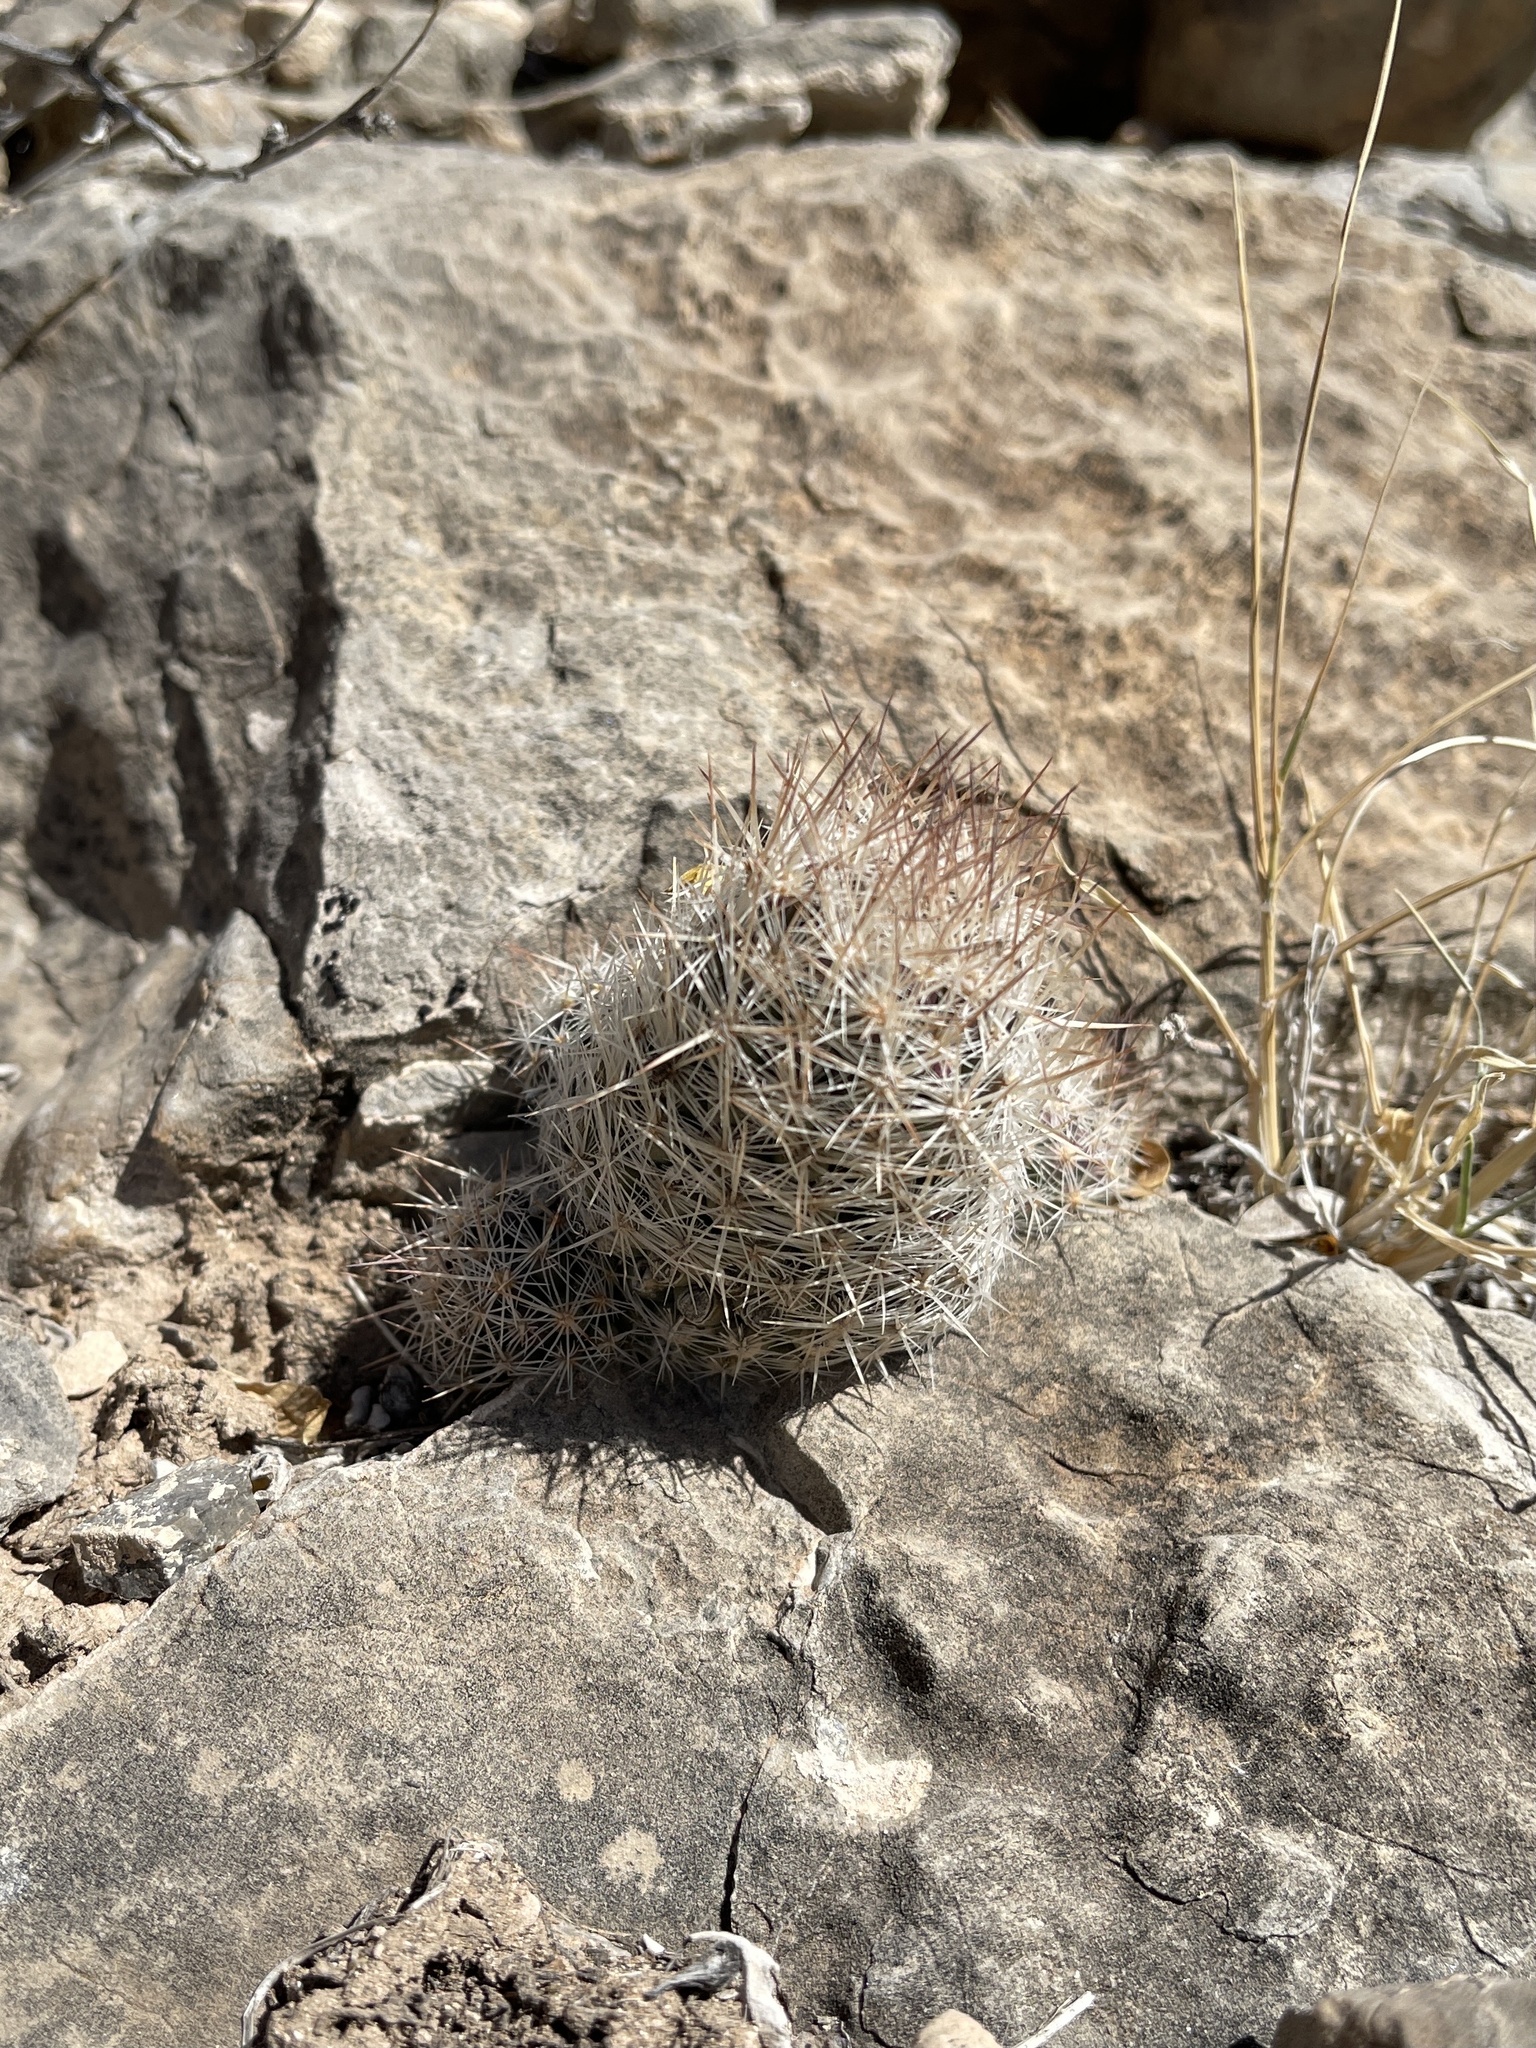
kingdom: Plantae
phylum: Tracheophyta
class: Magnoliopsida
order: Caryophyllales
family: Cactaceae
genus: Pelecyphora
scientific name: Pelecyphora tuberculosa
